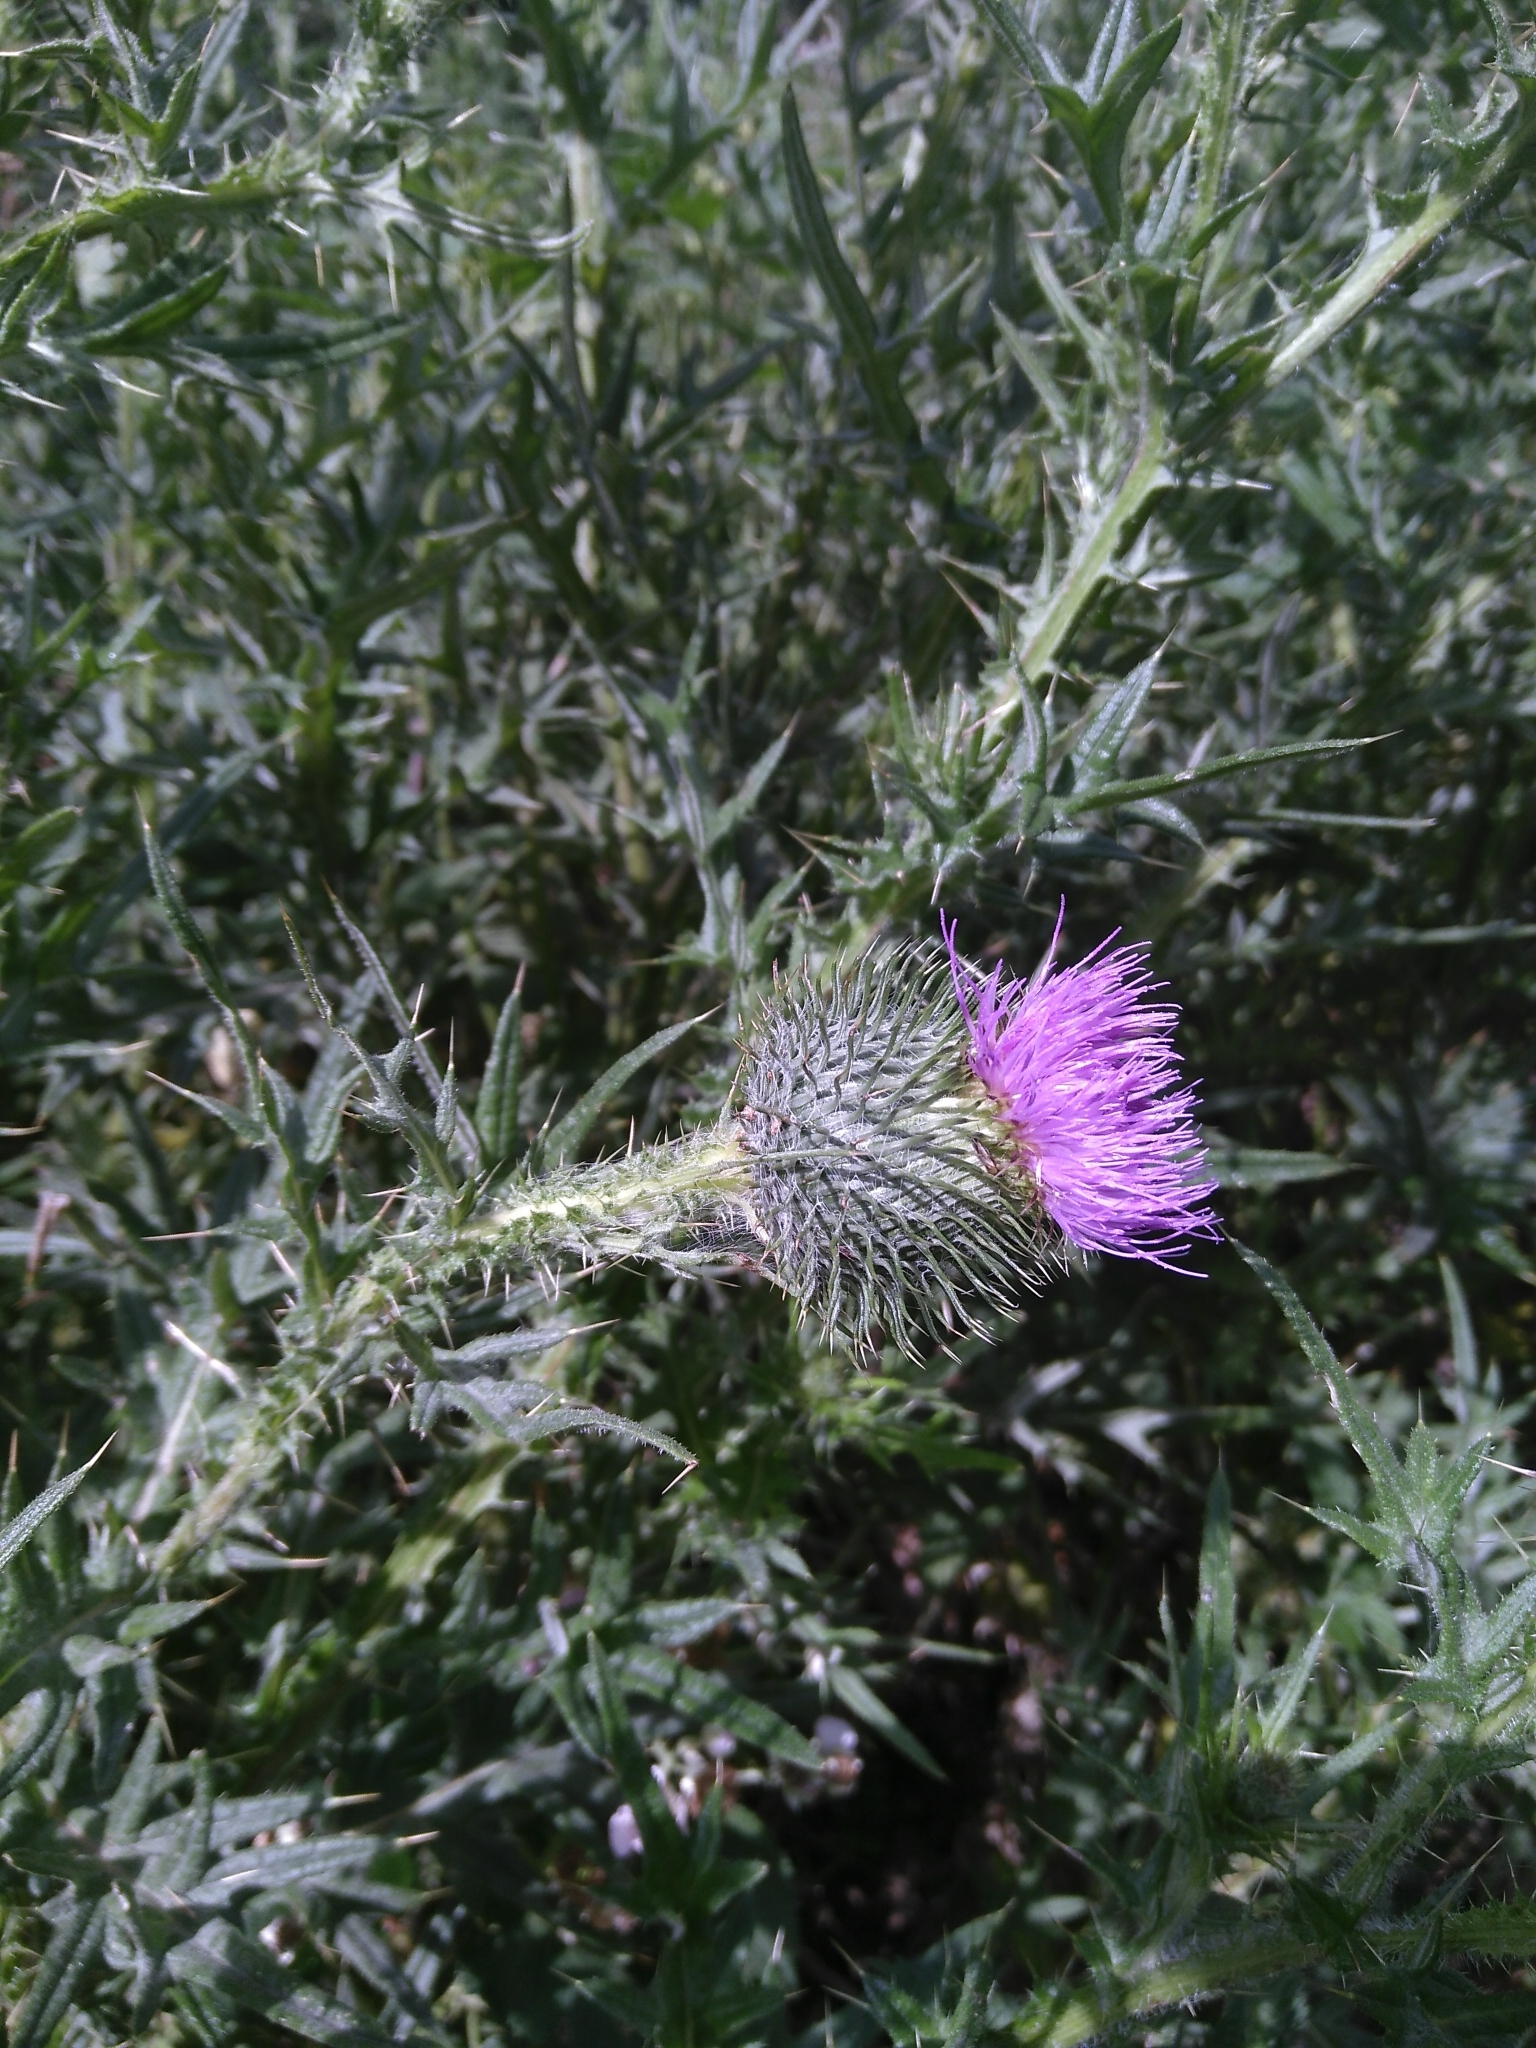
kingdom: Plantae
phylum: Tracheophyta
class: Magnoliopsida
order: Asterales
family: Asteraceae
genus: Cirsium
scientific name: Cirsium vulgare
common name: Bull thistle
